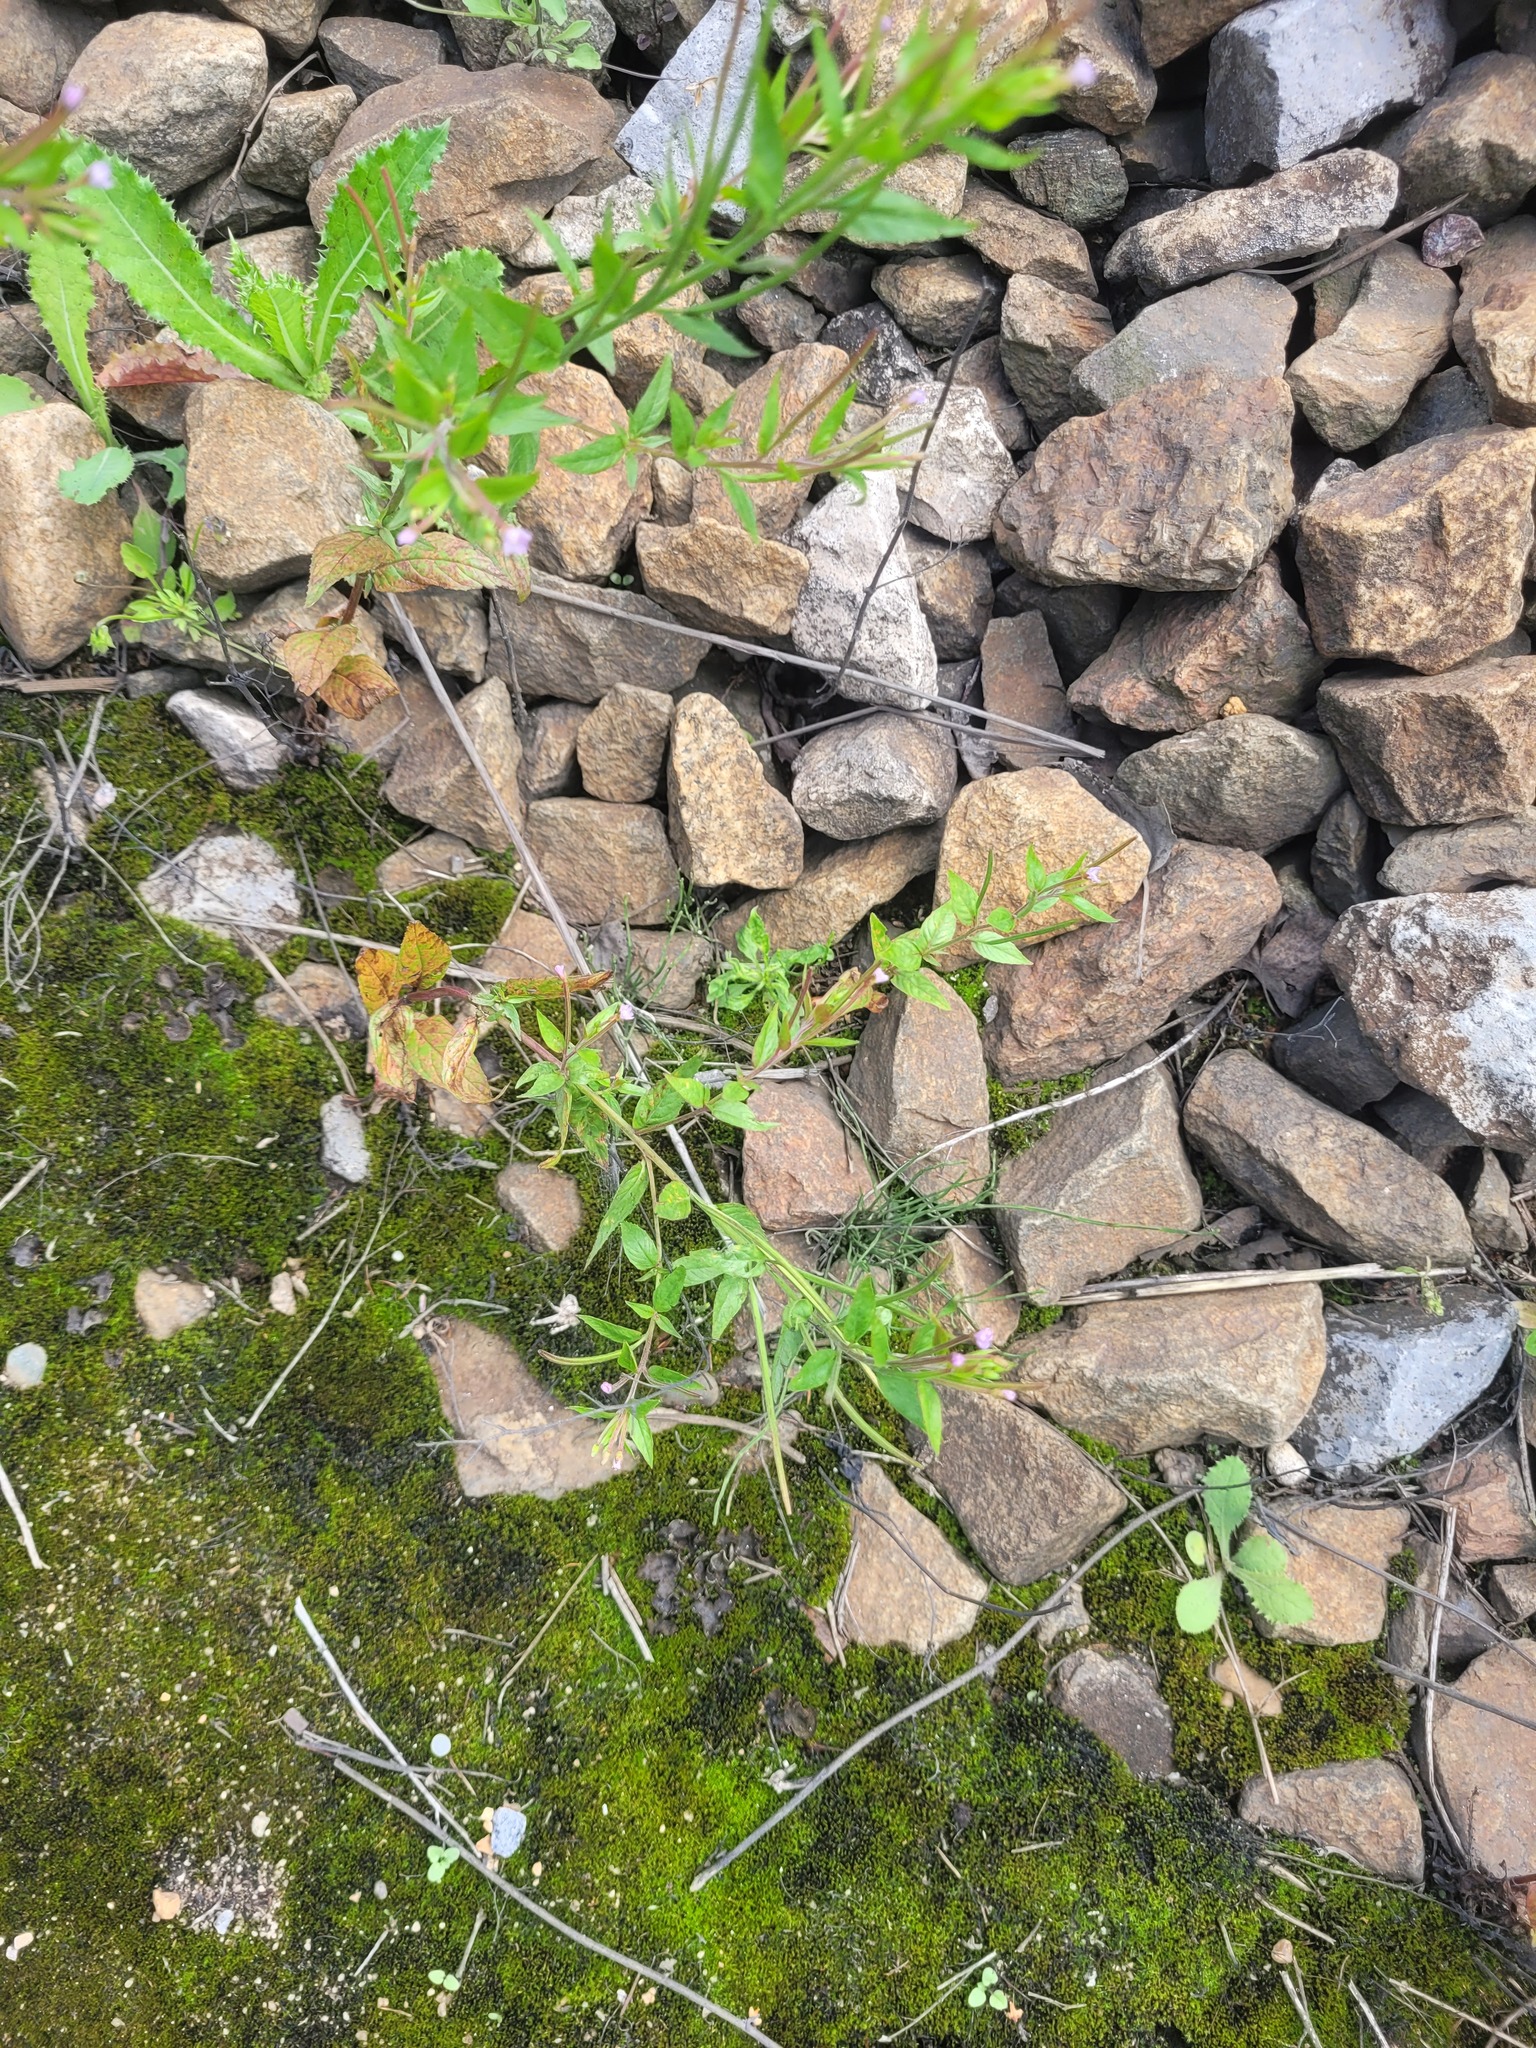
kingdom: Plantae
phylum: Tracheophyta
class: Magnoliopsida
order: Myrtales
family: Onagraceae
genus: Epilobium
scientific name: Epilobium ciliatum
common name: American willowherb
